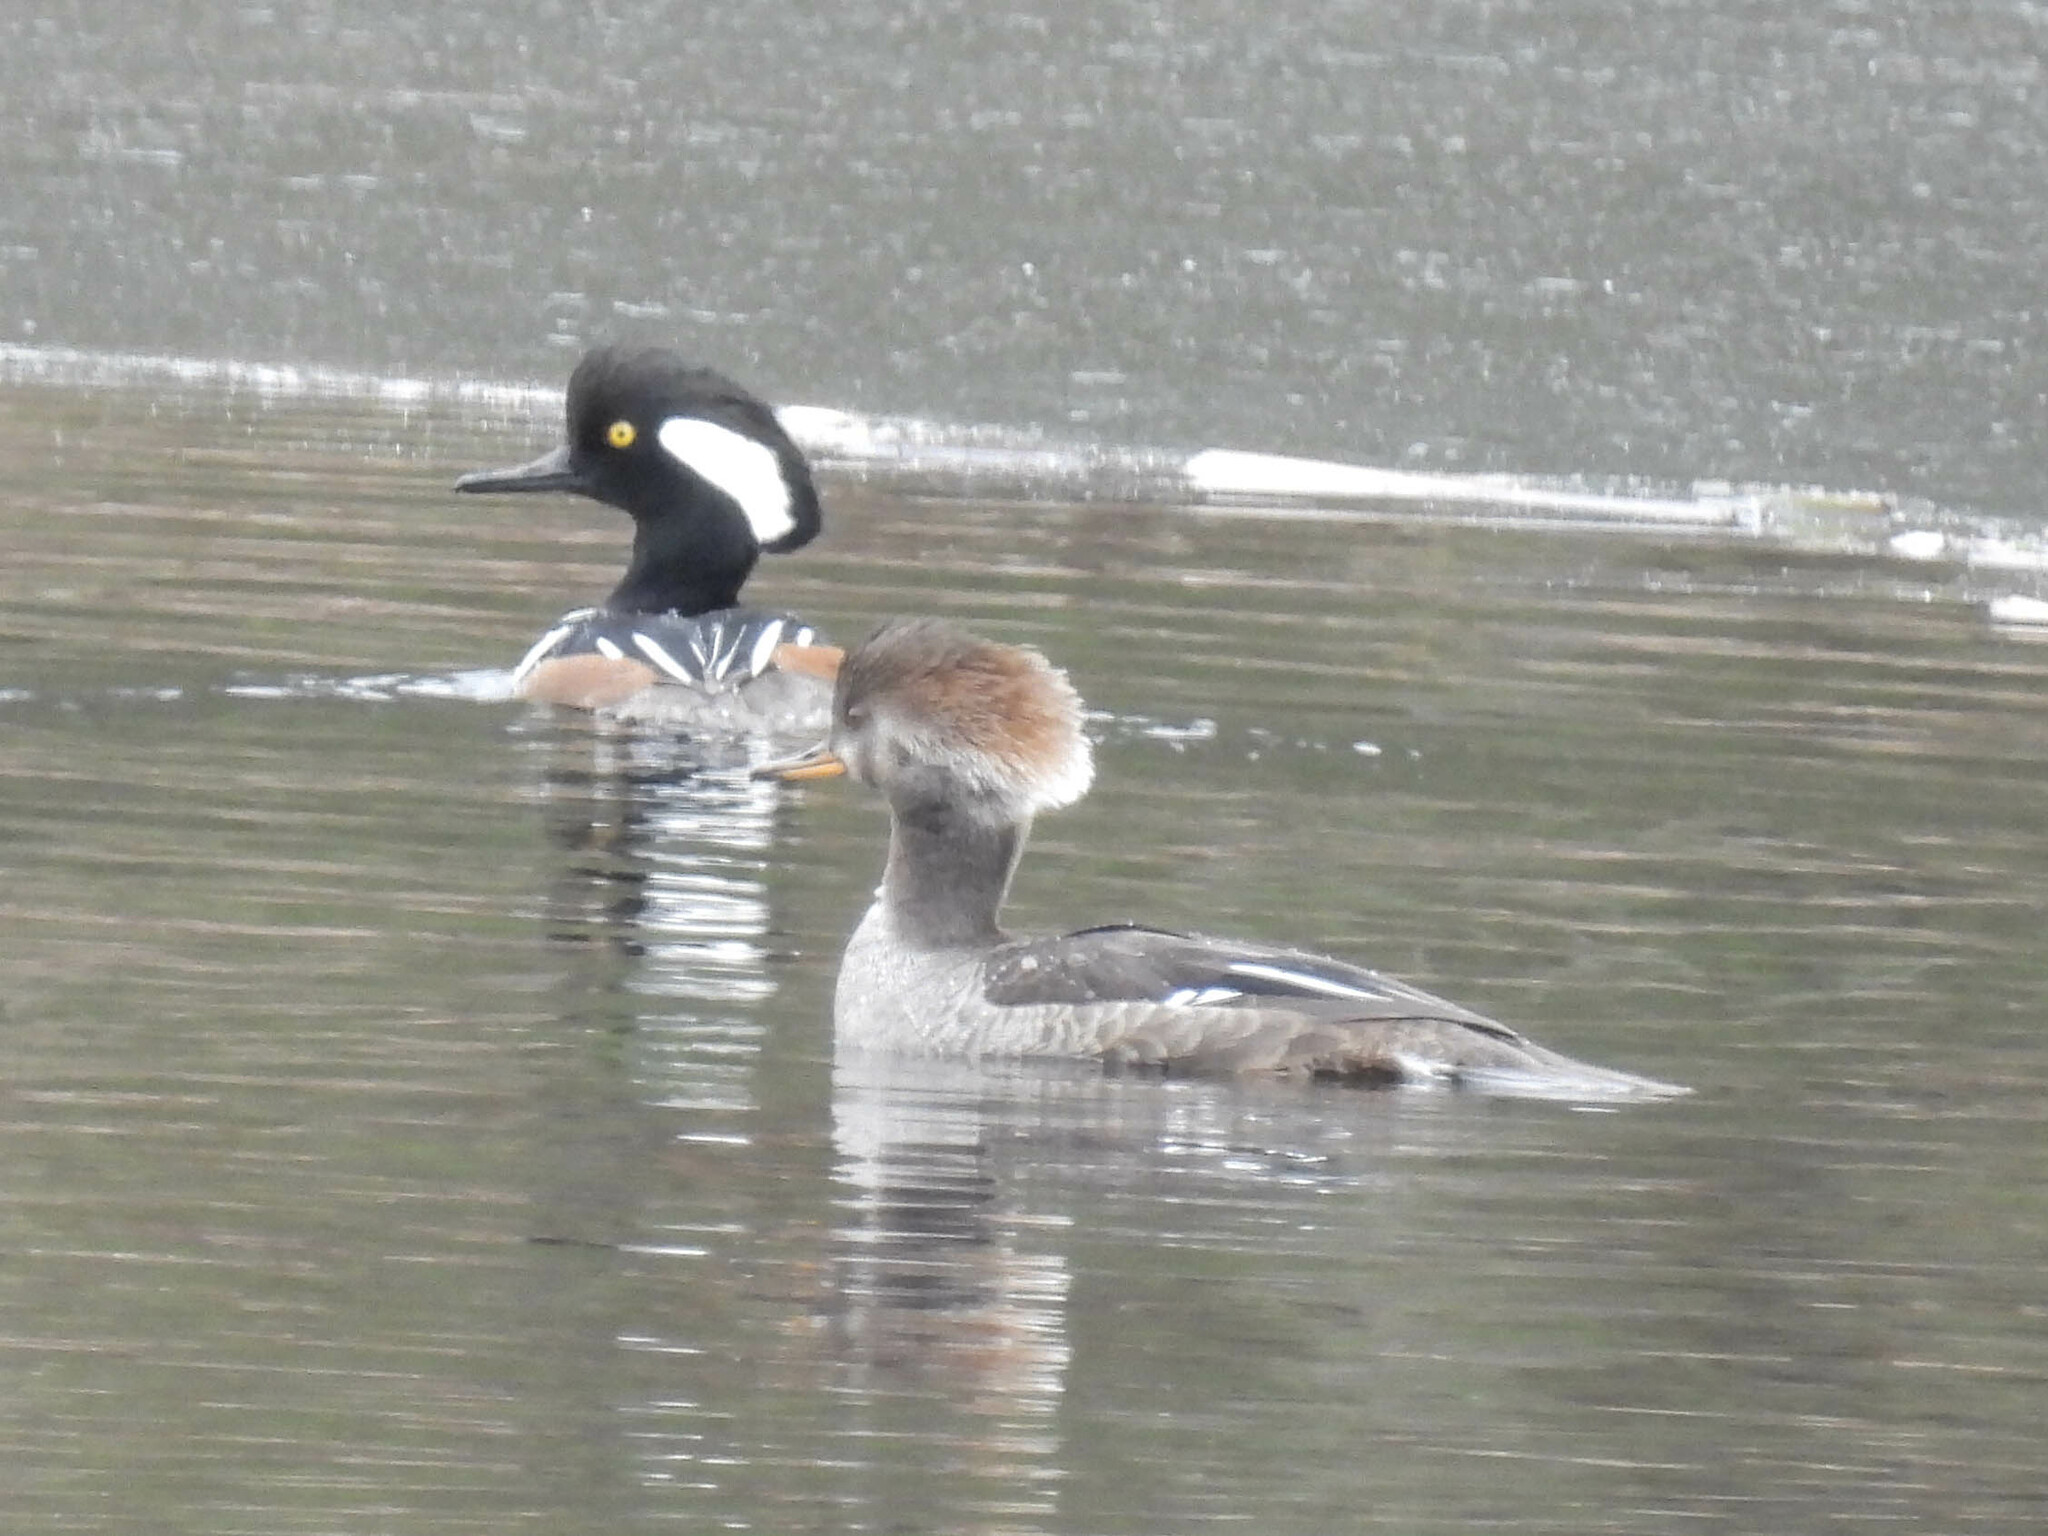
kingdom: Animalia
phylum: Chordata
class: Aves
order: Anseriformes
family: Anatidae
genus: Lophodytes
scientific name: Lophodytes cucullatus
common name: Hooded merganser
